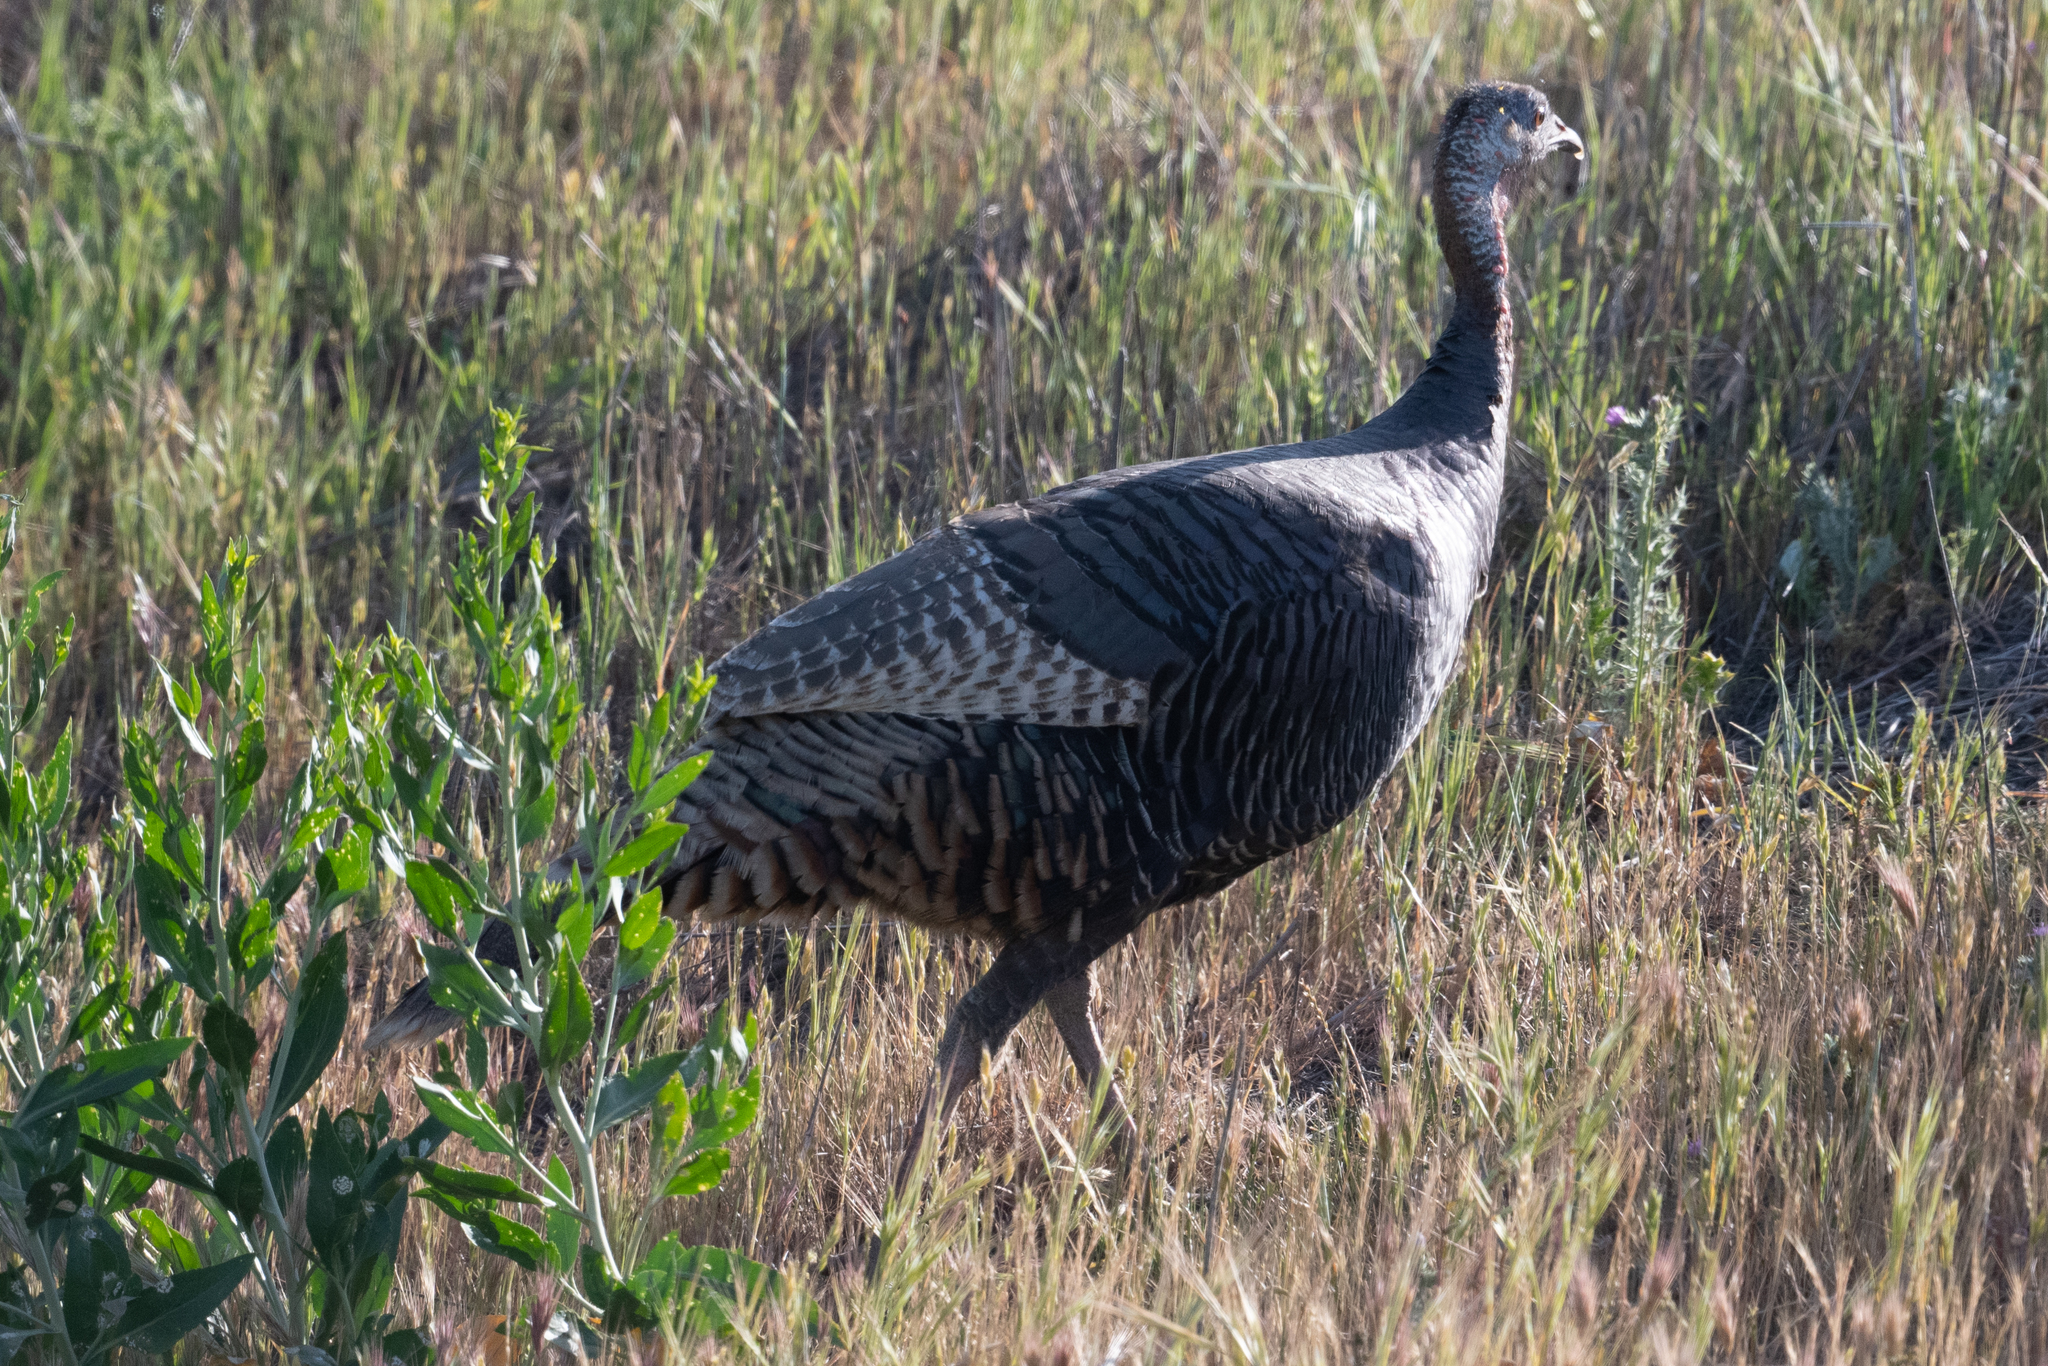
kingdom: Animalia
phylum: Chordata
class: Aves
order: Galliformes
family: Phasianidae
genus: Meleagris
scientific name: Meleagris gallopavo
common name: Wild turkey
